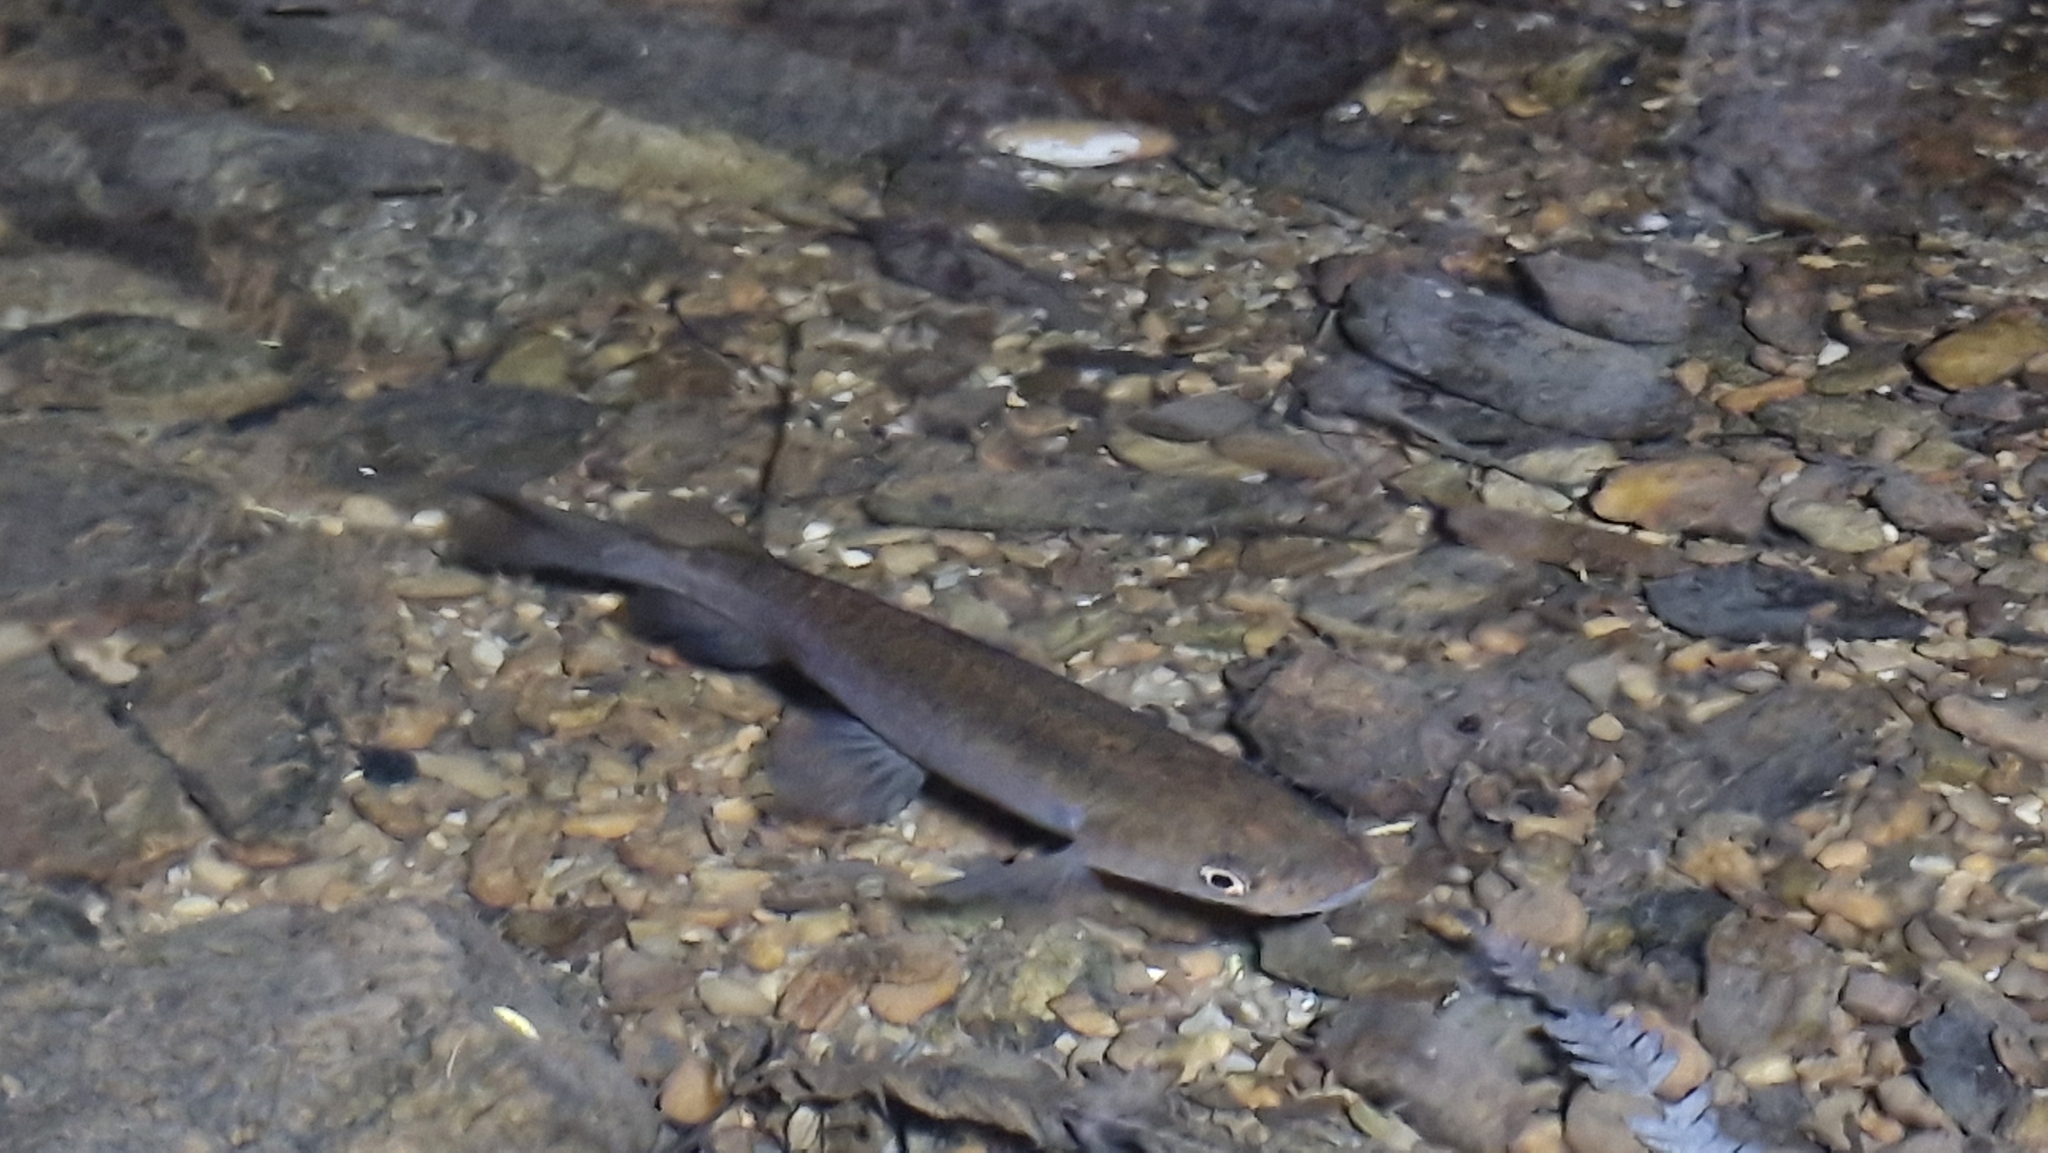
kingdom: Animalia
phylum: Chordata
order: Osmeriformes
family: Galaxiidae
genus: Galaxias
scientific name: Galaxias fasciatus
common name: Banded kokopu
